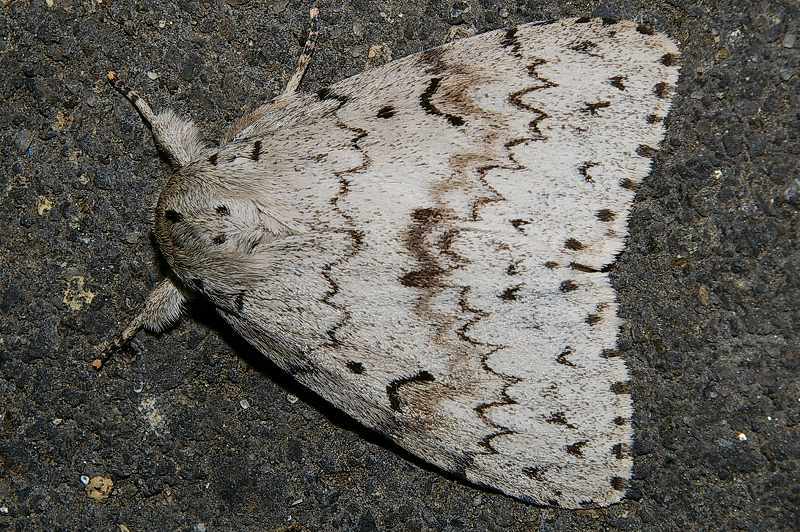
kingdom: Animalia
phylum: Arthropoda
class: Insecta
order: Lepidoptera
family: Erebidae
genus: Lymantria
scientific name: Lymantria lucescens
